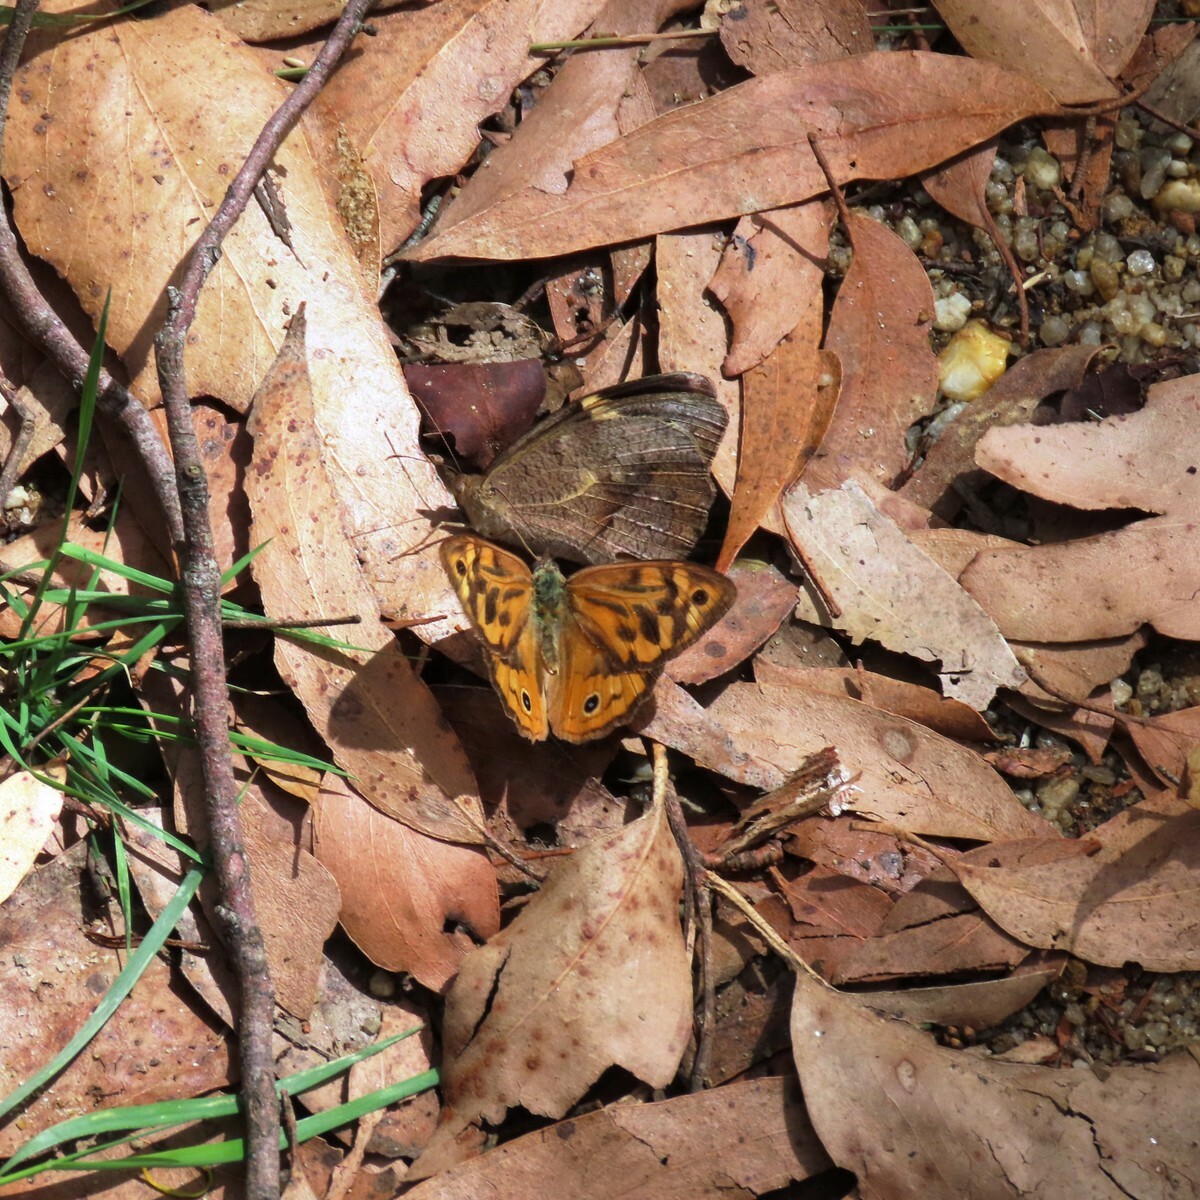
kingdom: Animalia
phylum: Arthropoda
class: Insecta
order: Lepidoptera
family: Nymphalidae
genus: Heteronympha
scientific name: Heteronympha merope
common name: Common brown
